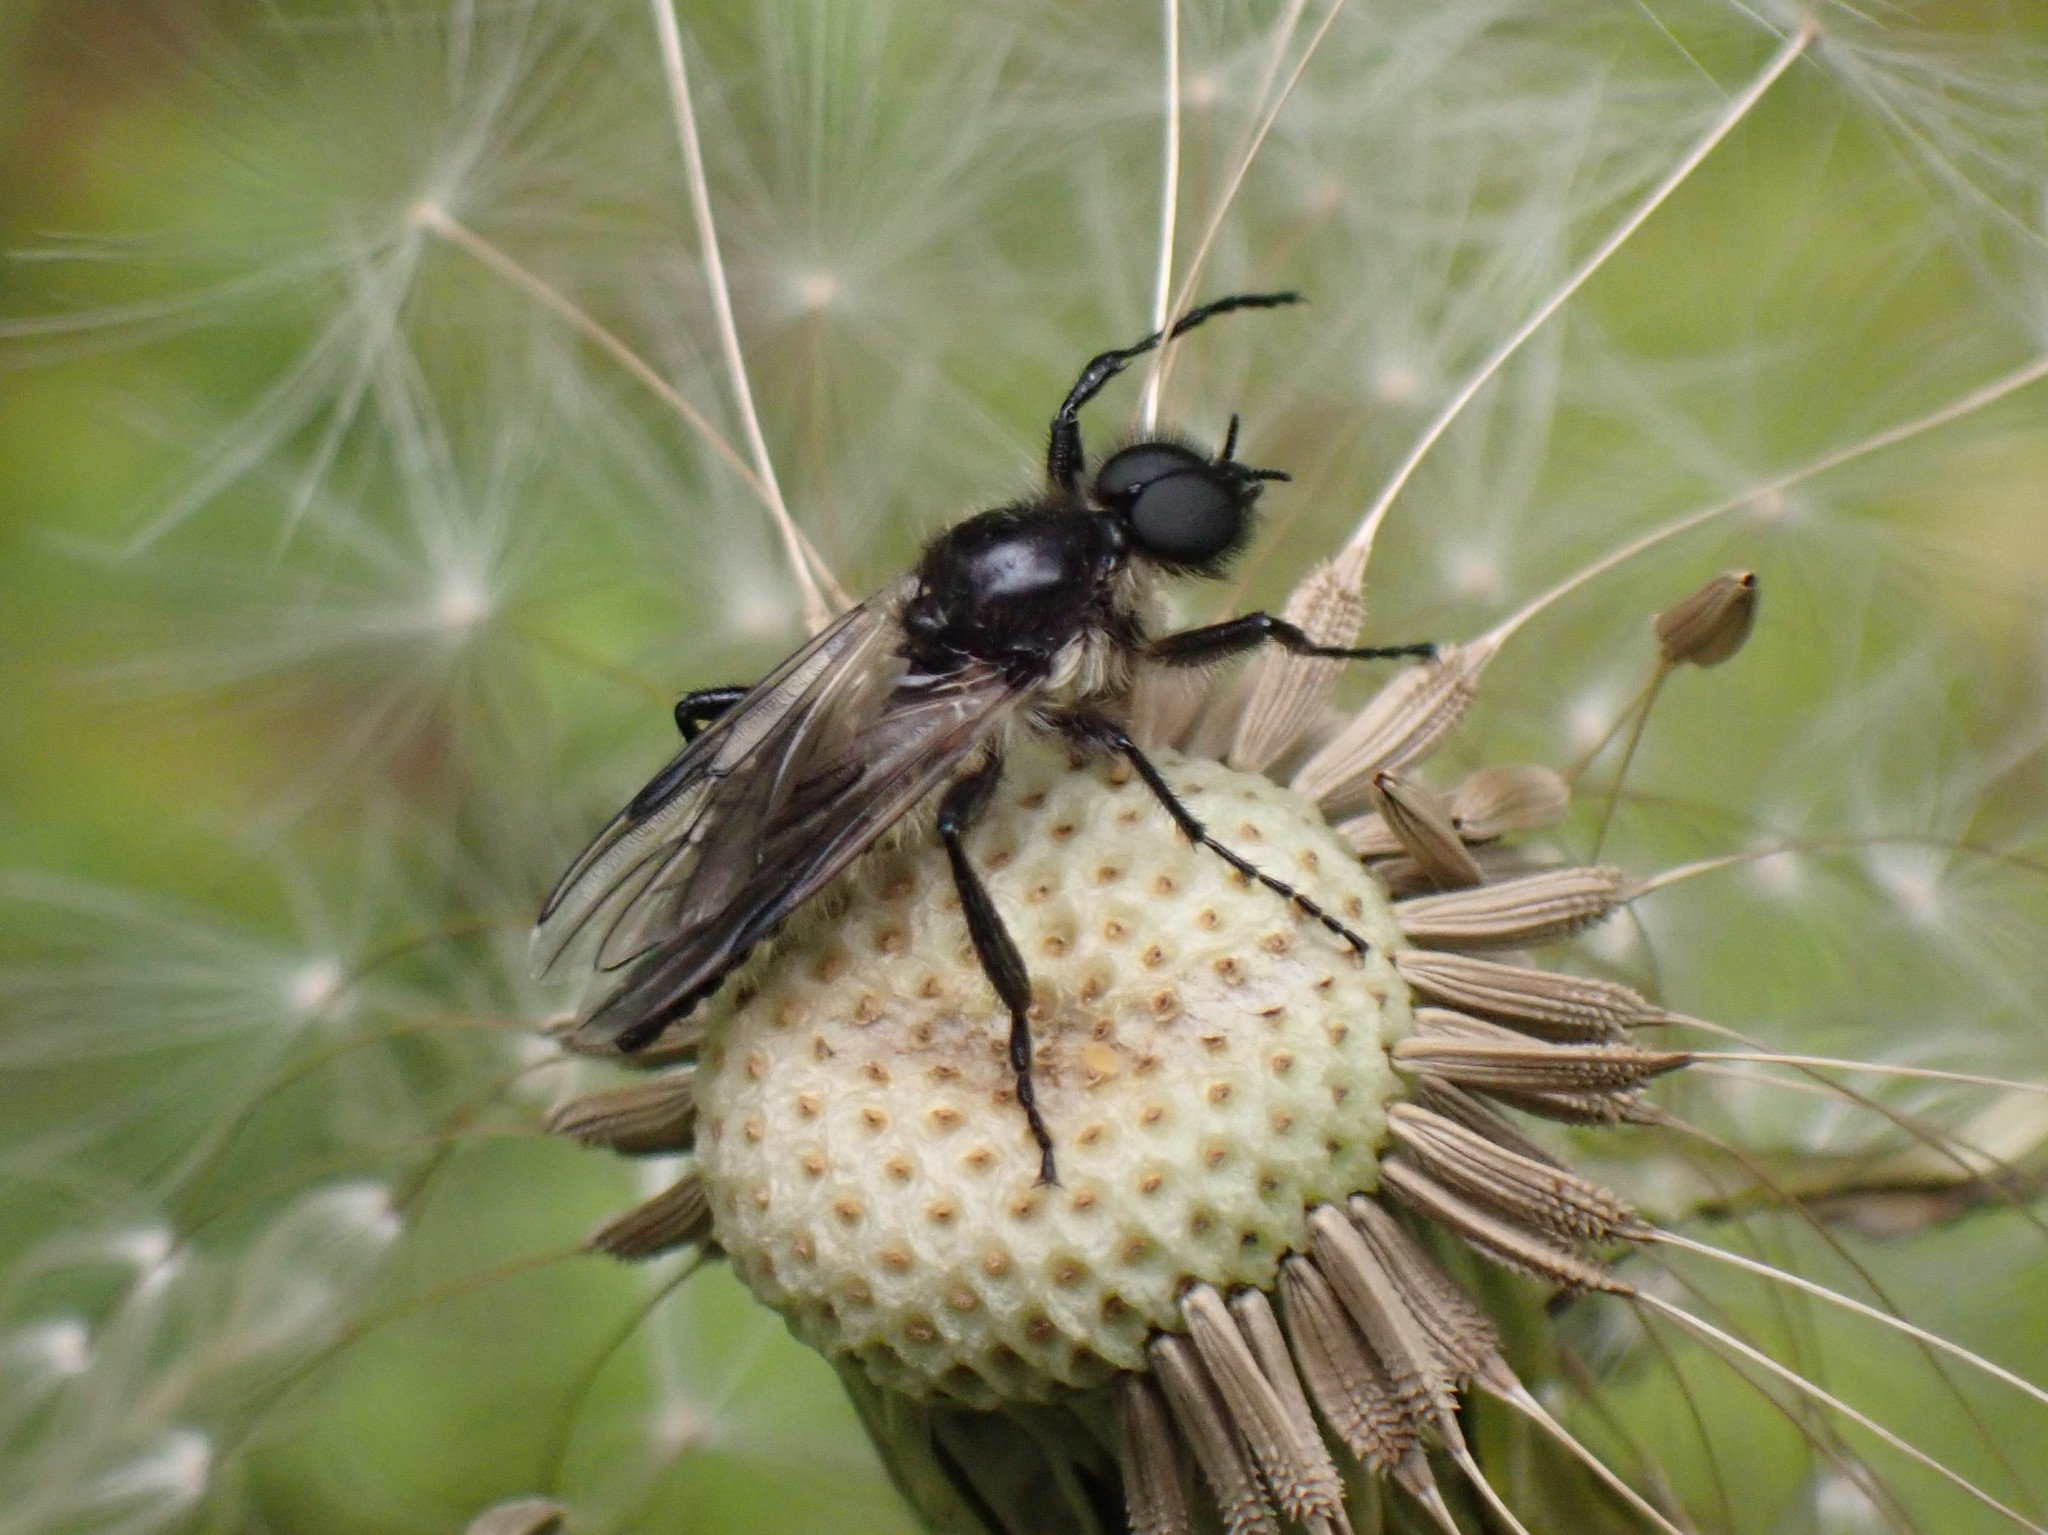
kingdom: Animalia
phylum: Arthropoda
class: Insecta
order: Diptera
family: Bibionidae
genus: Bibio
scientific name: Bibio albipennis
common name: White-winged march fly
